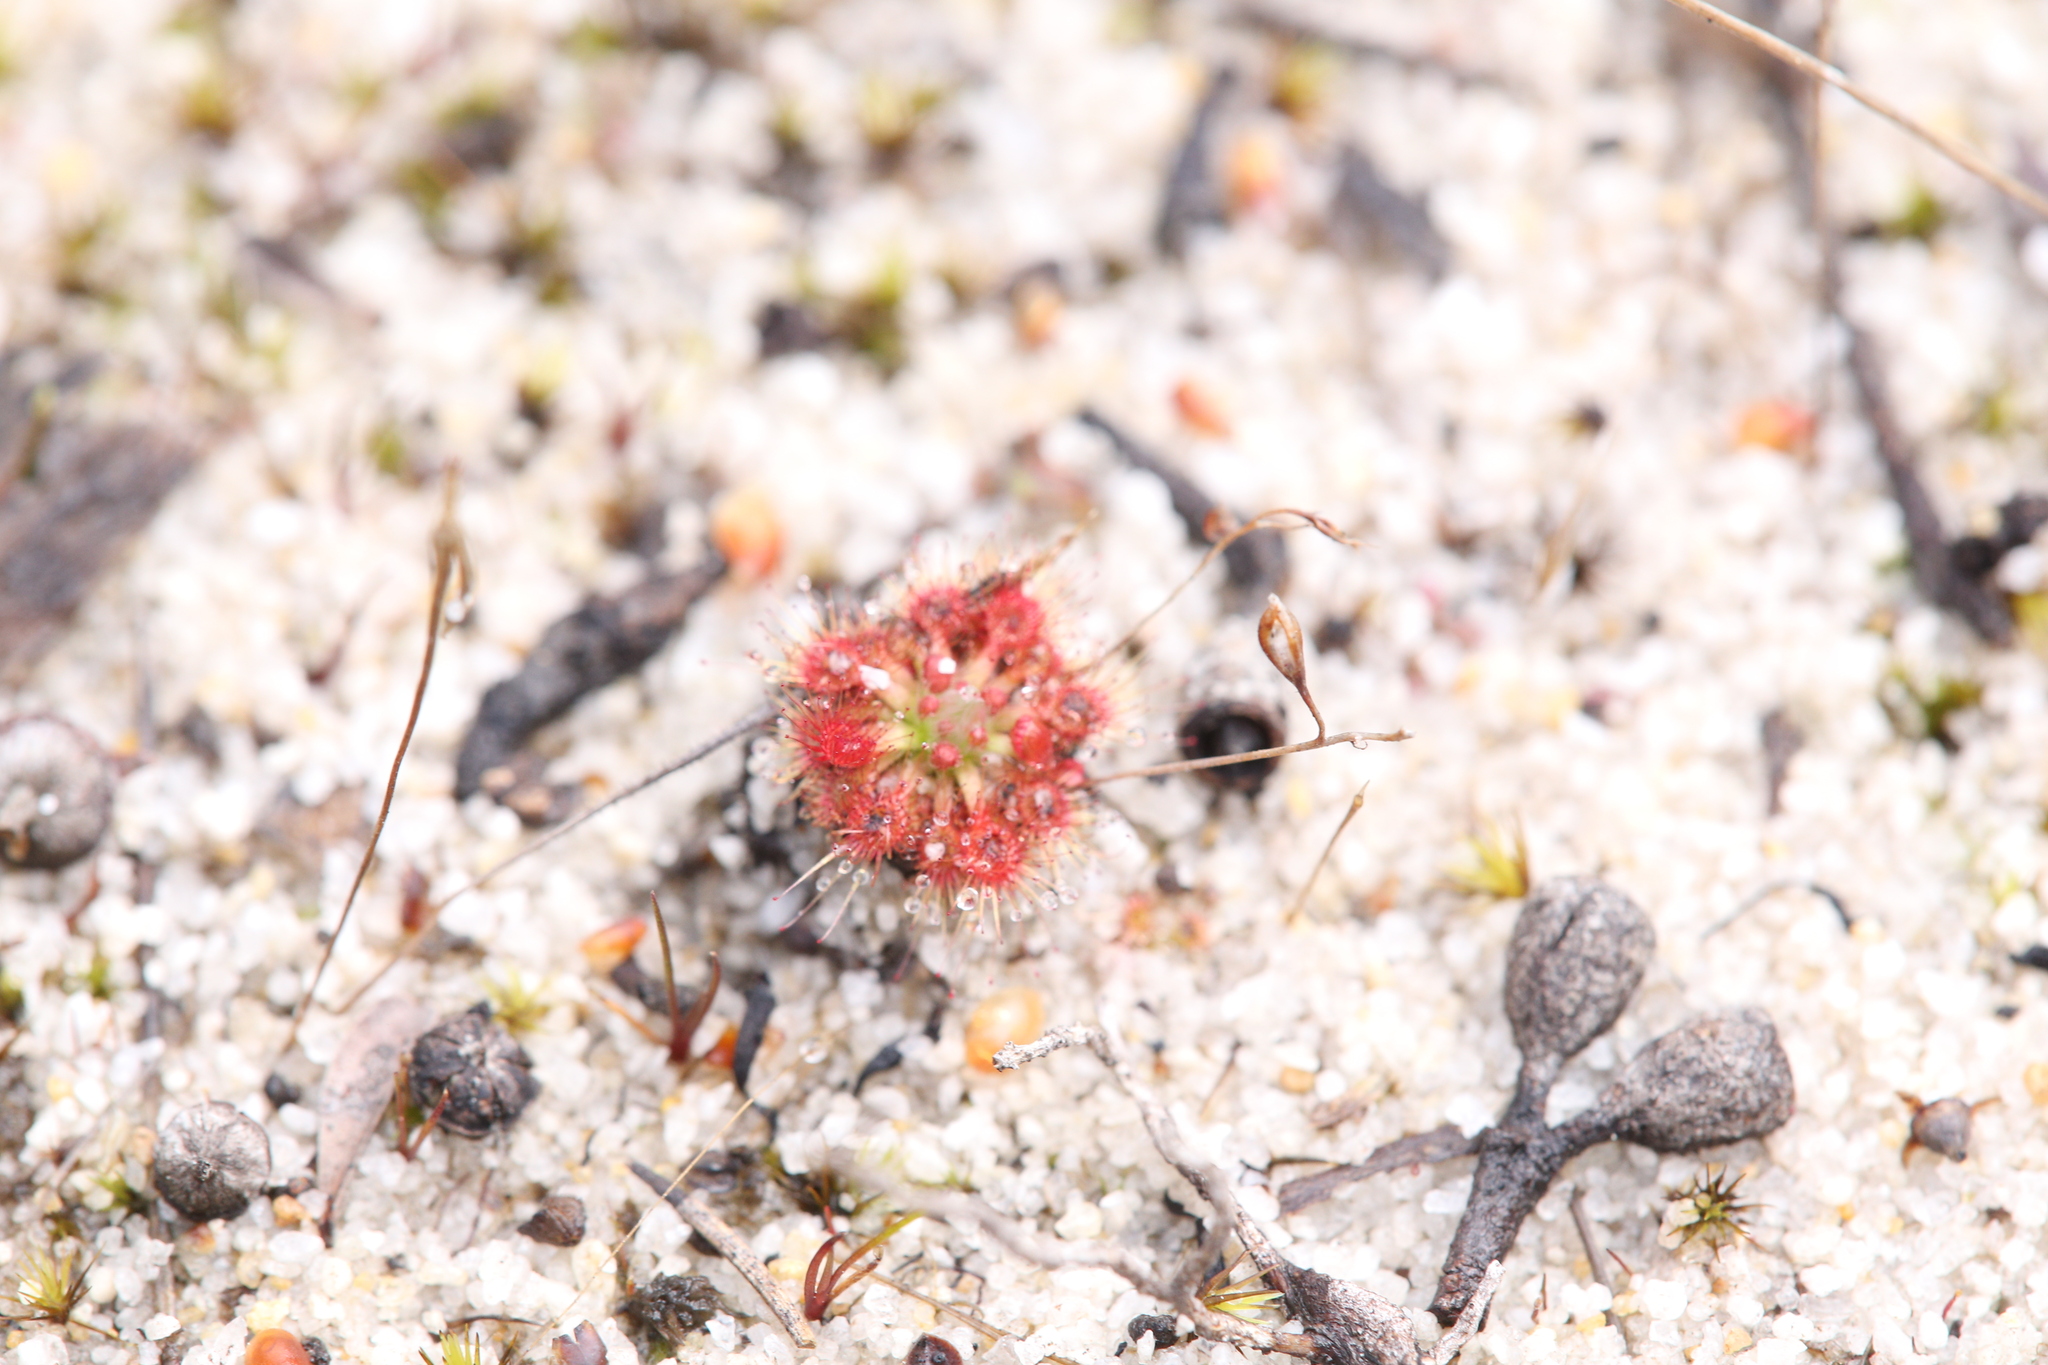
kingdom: Plantae
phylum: Tracheophyta
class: Magnoliopsida
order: Caryophyllales
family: Droseraceae
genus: Drosera
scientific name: Drosera nitidula
